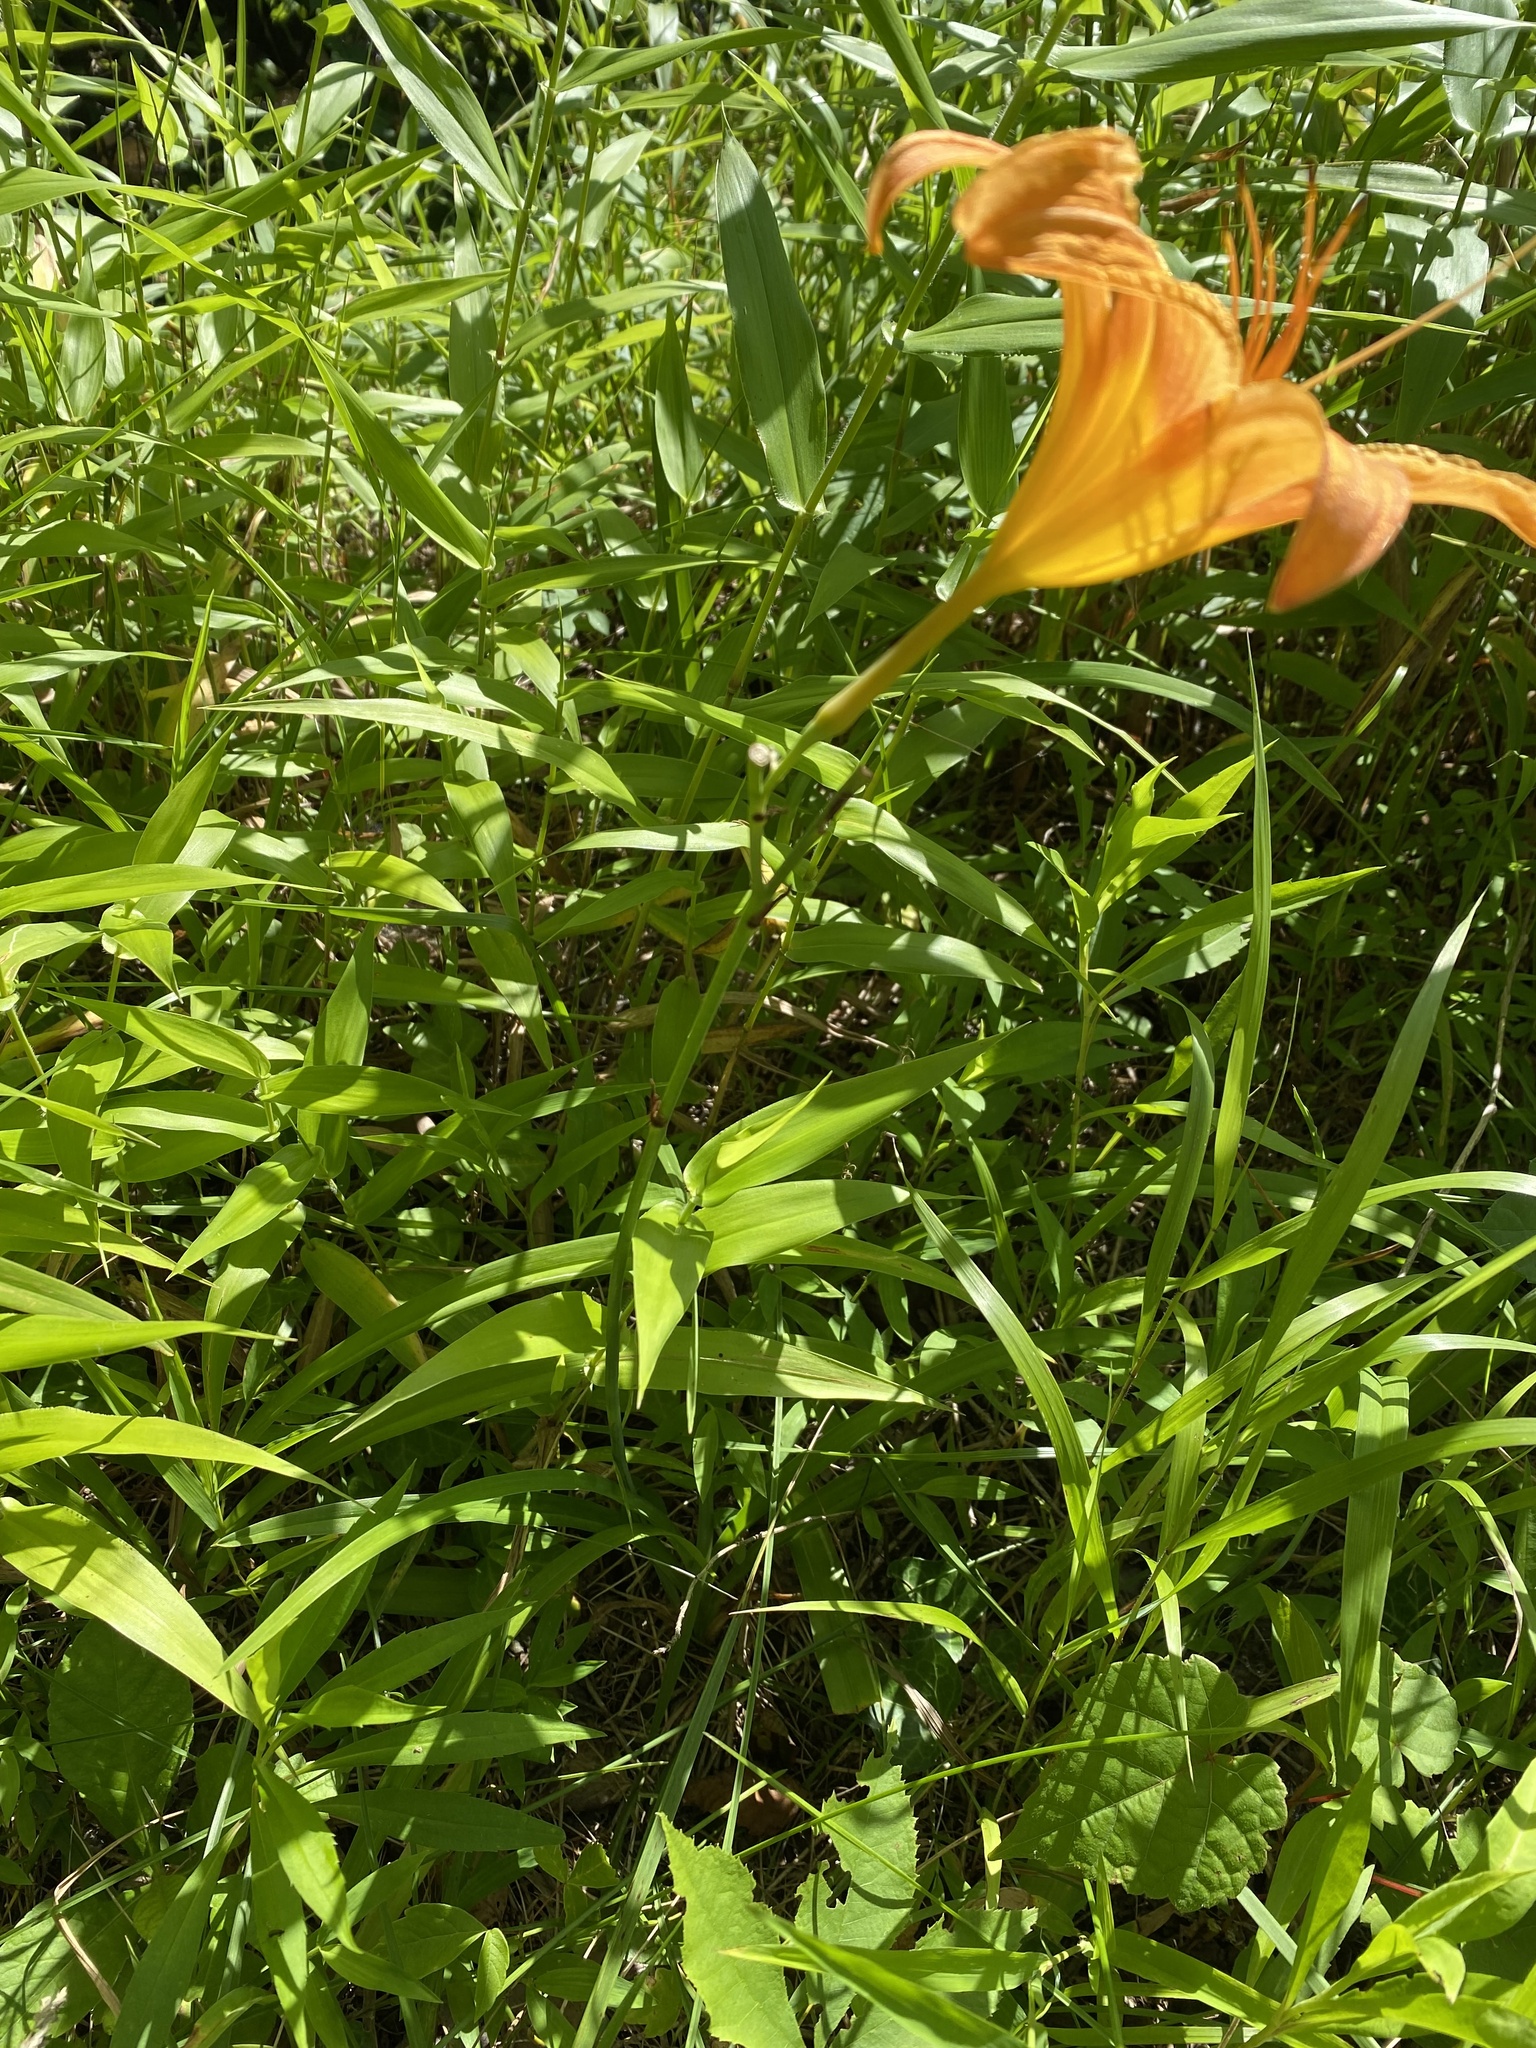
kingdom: Plantae
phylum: Tracheophyta
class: Liliopsida
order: Asparagales
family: Asphodelaceae
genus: Hemerocallis
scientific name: Hemerocallis fulva
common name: Orange day-lily
